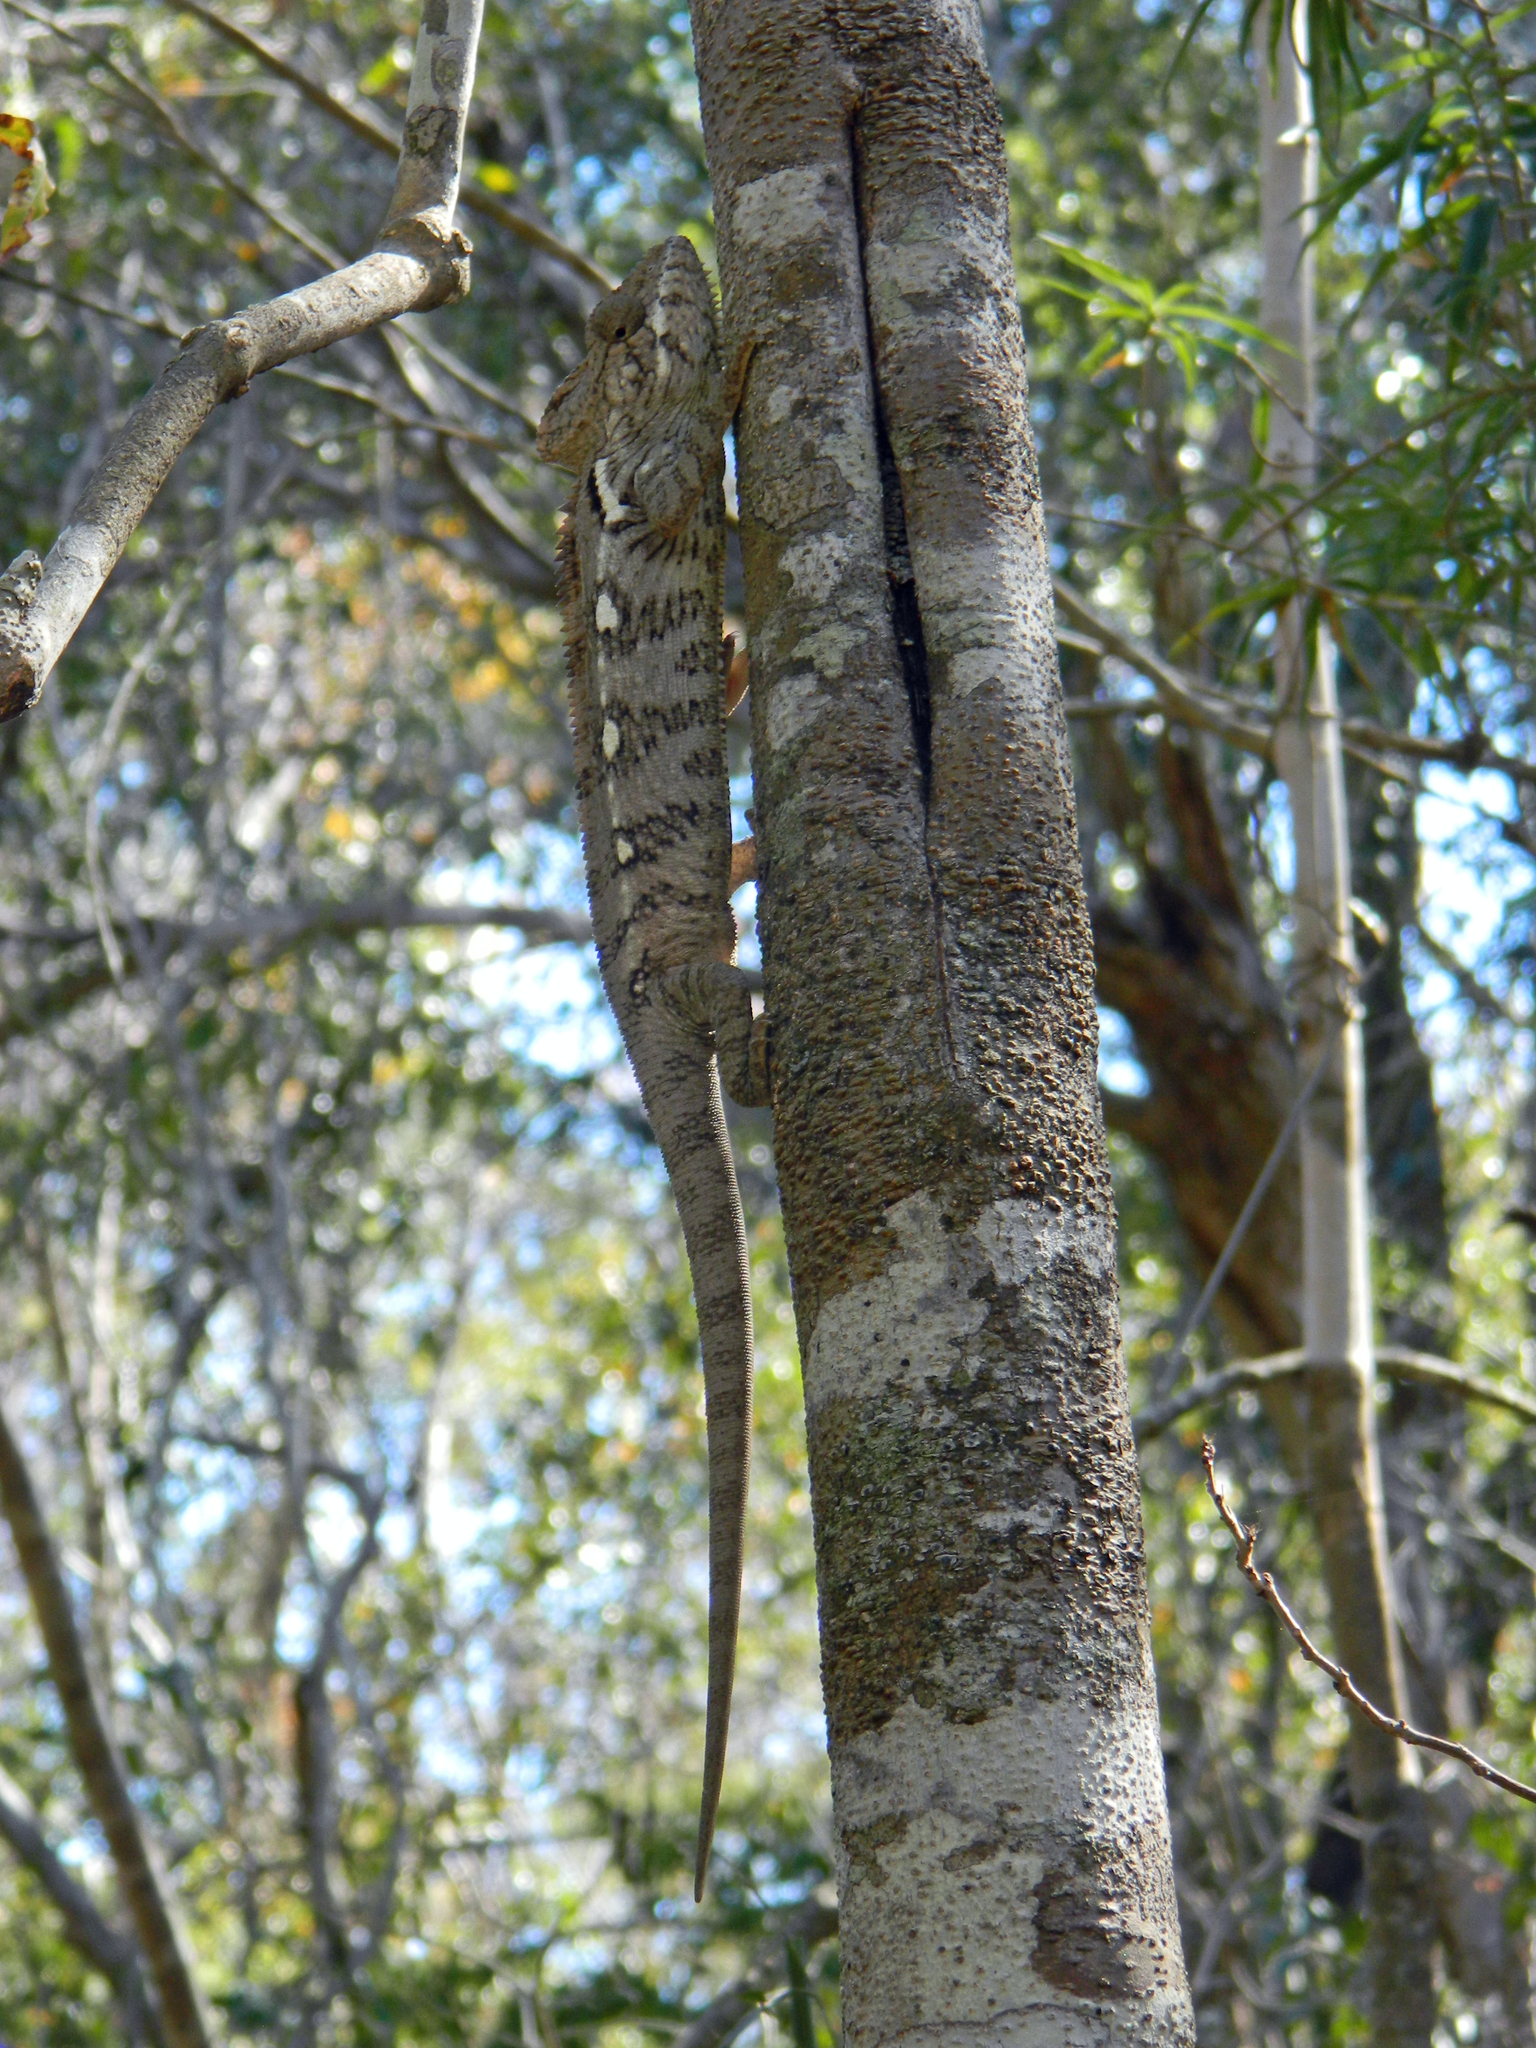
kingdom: Animalia
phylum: Chordata
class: Squamata
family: Chamaeleonidae
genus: Furcifer
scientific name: Furcifer oustaleti
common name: Oustalet's chameleon
